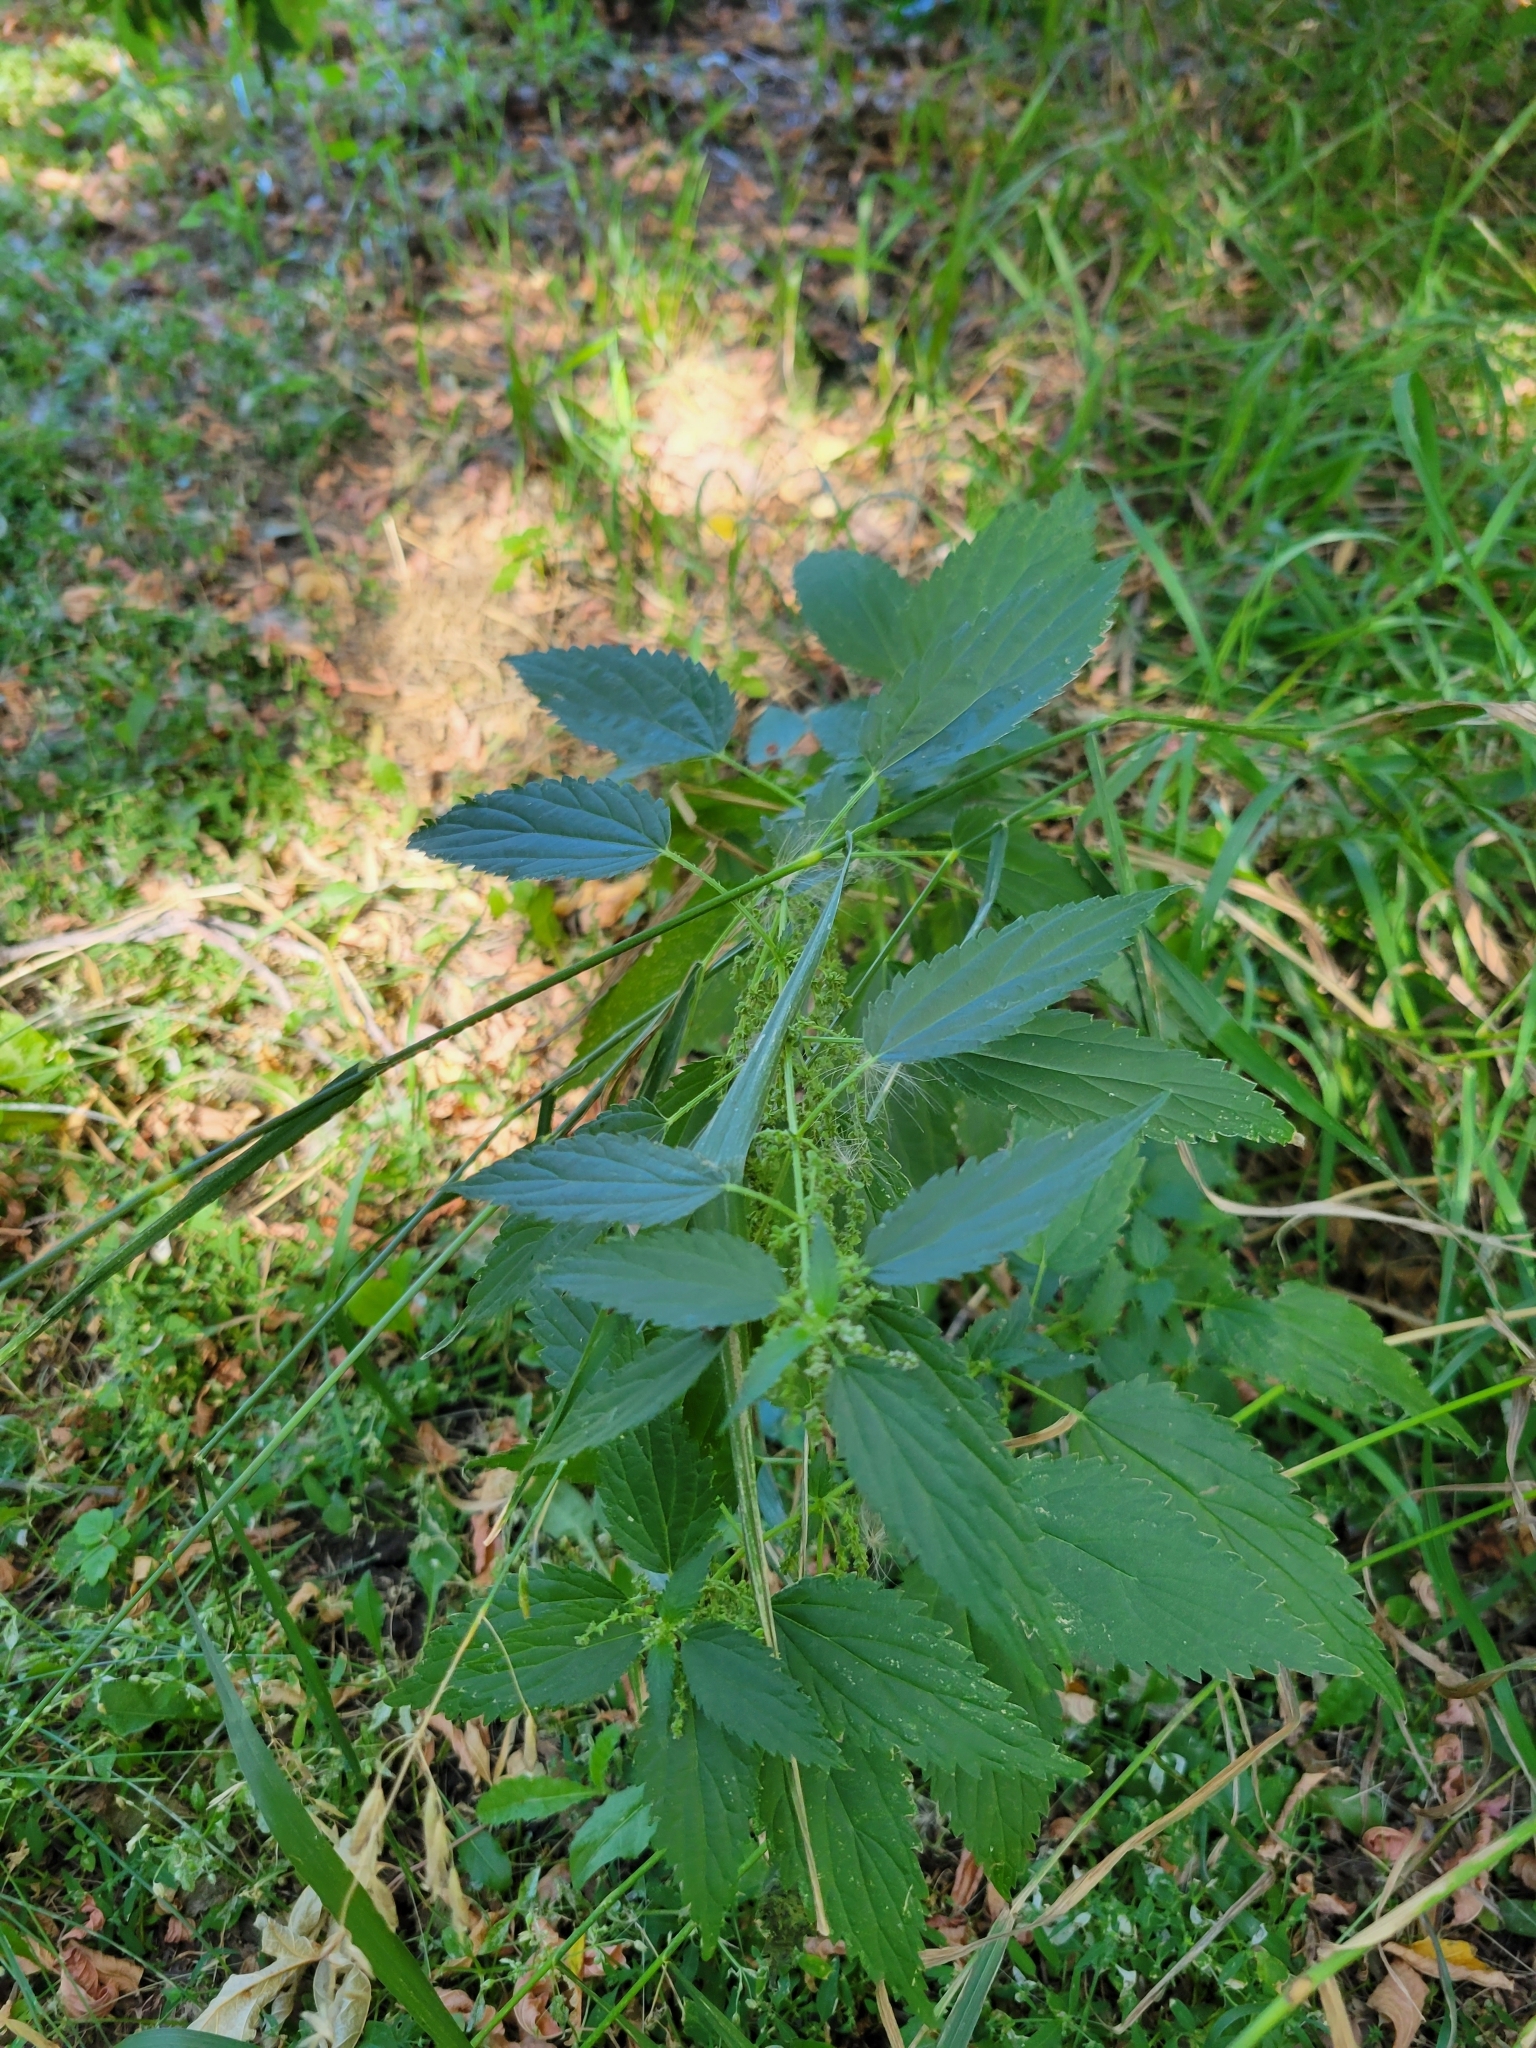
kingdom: Plantae
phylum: Tracheophyta
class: Magnoliopsida
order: Rosales
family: Urticaceae
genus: Urtica
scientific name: Urtica gracilis
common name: Slender stinging nettle
